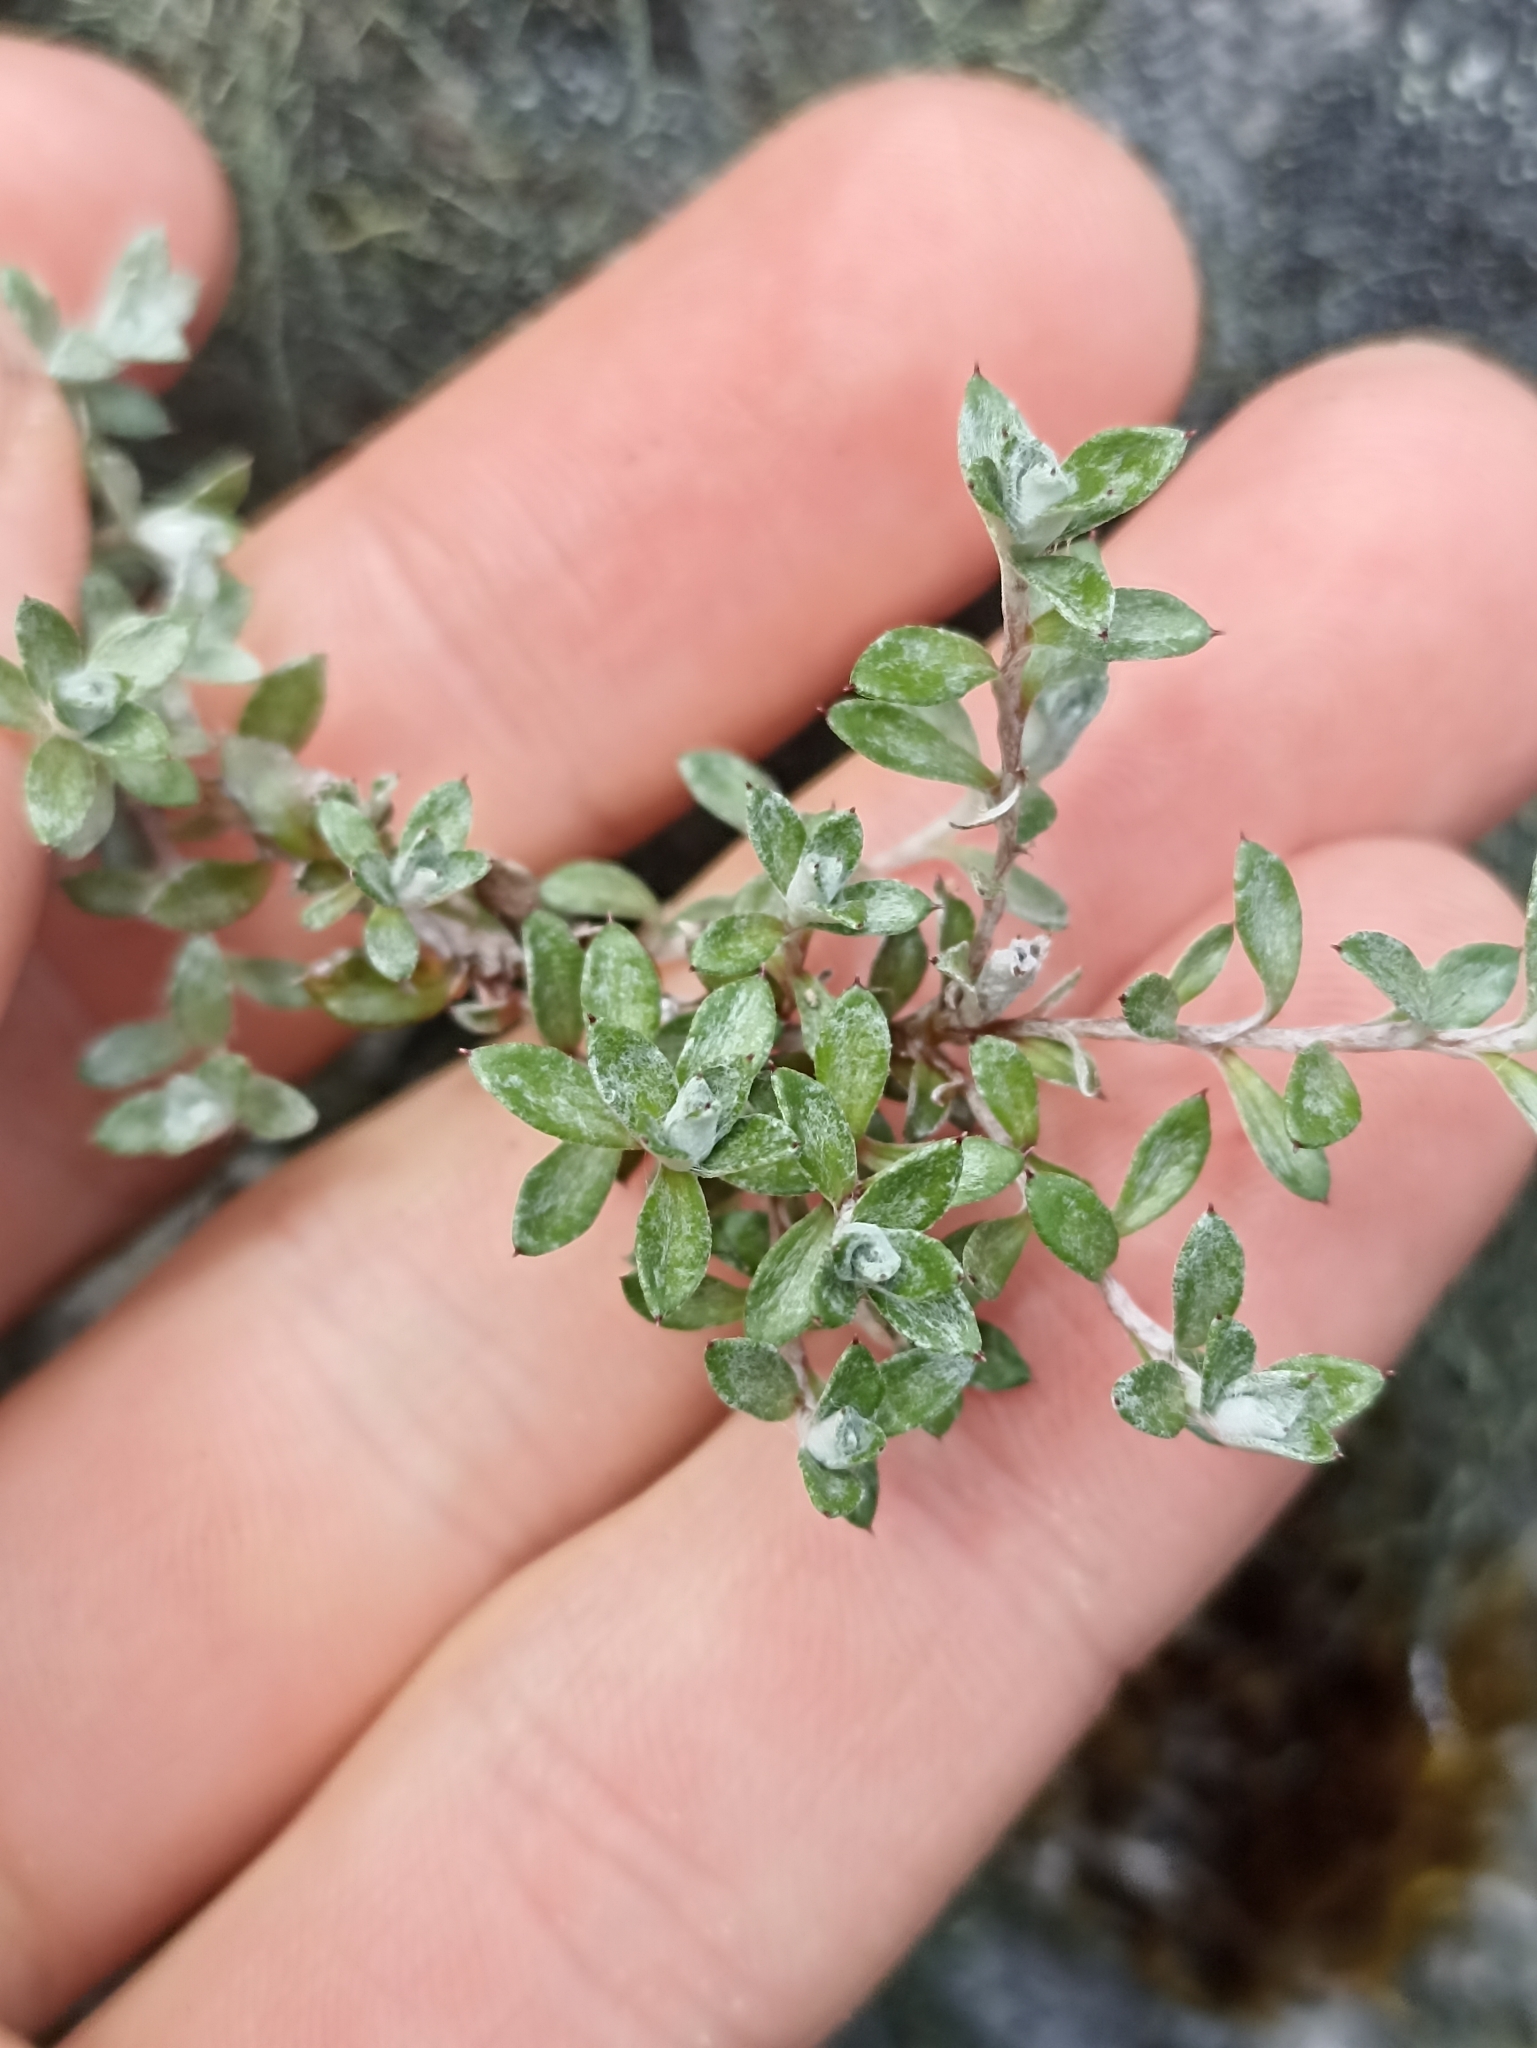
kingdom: Plantae
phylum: Tracheophyta
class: Magnoliopsida
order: Asterales
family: Asteraceae
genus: Anaphalioides
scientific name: Anaphalioides bellidioides
